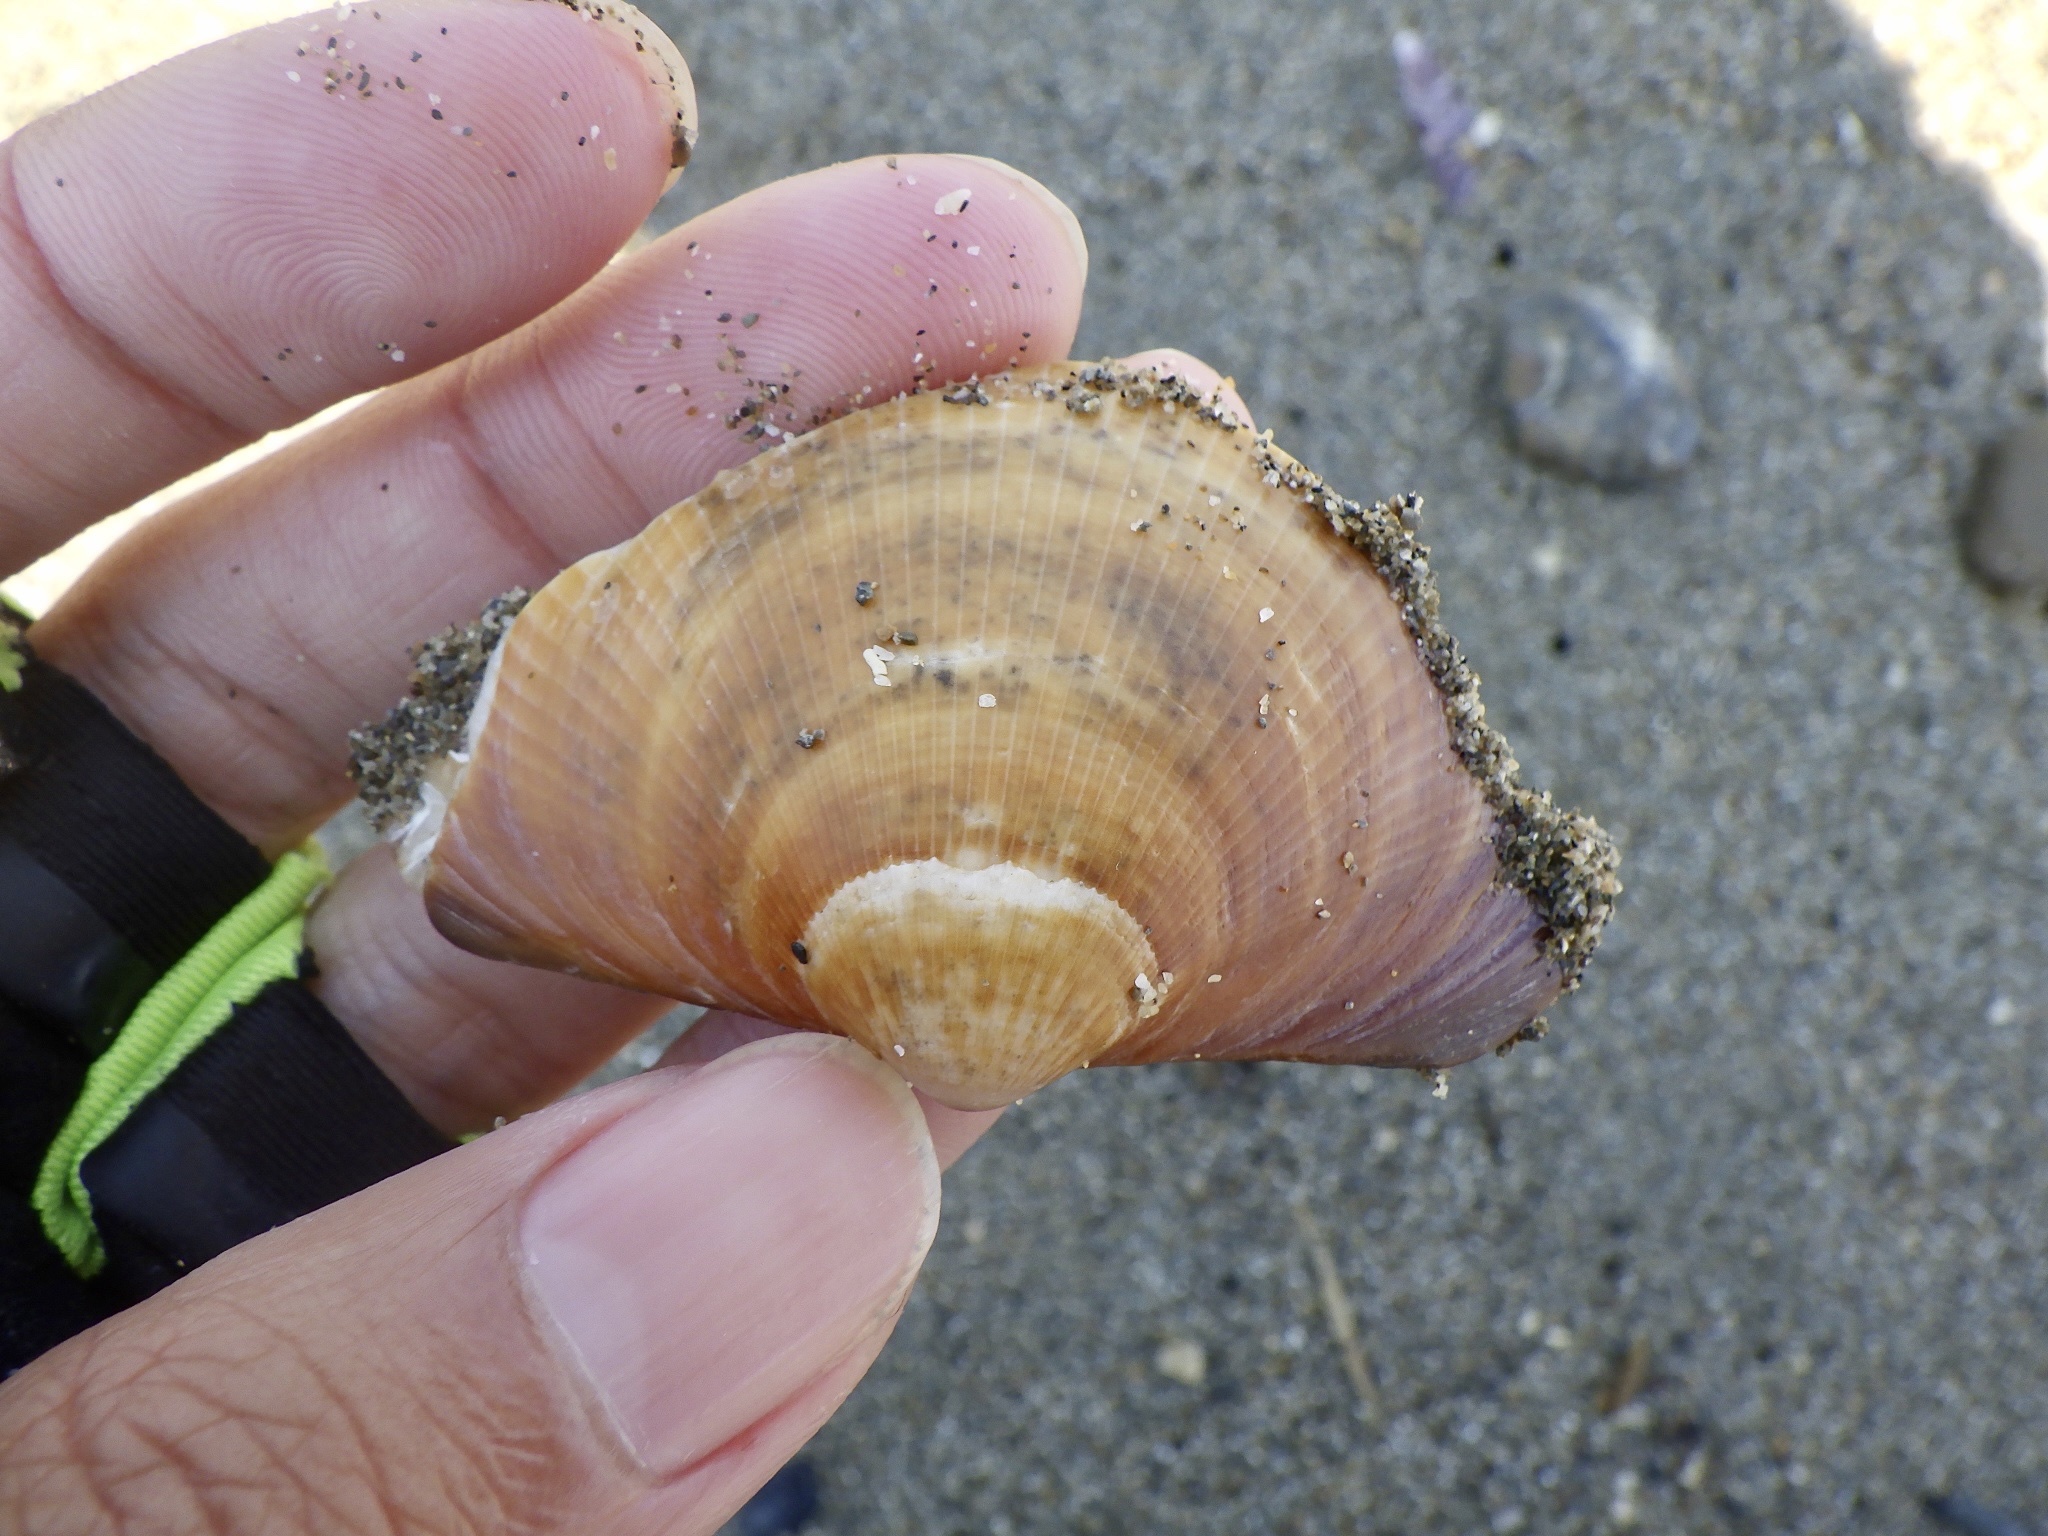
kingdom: Animalia
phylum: Mollusca
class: Bivalvia
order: Arcida
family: Glycymerididae
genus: Glycymeris
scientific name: Glycymeris albolineata
